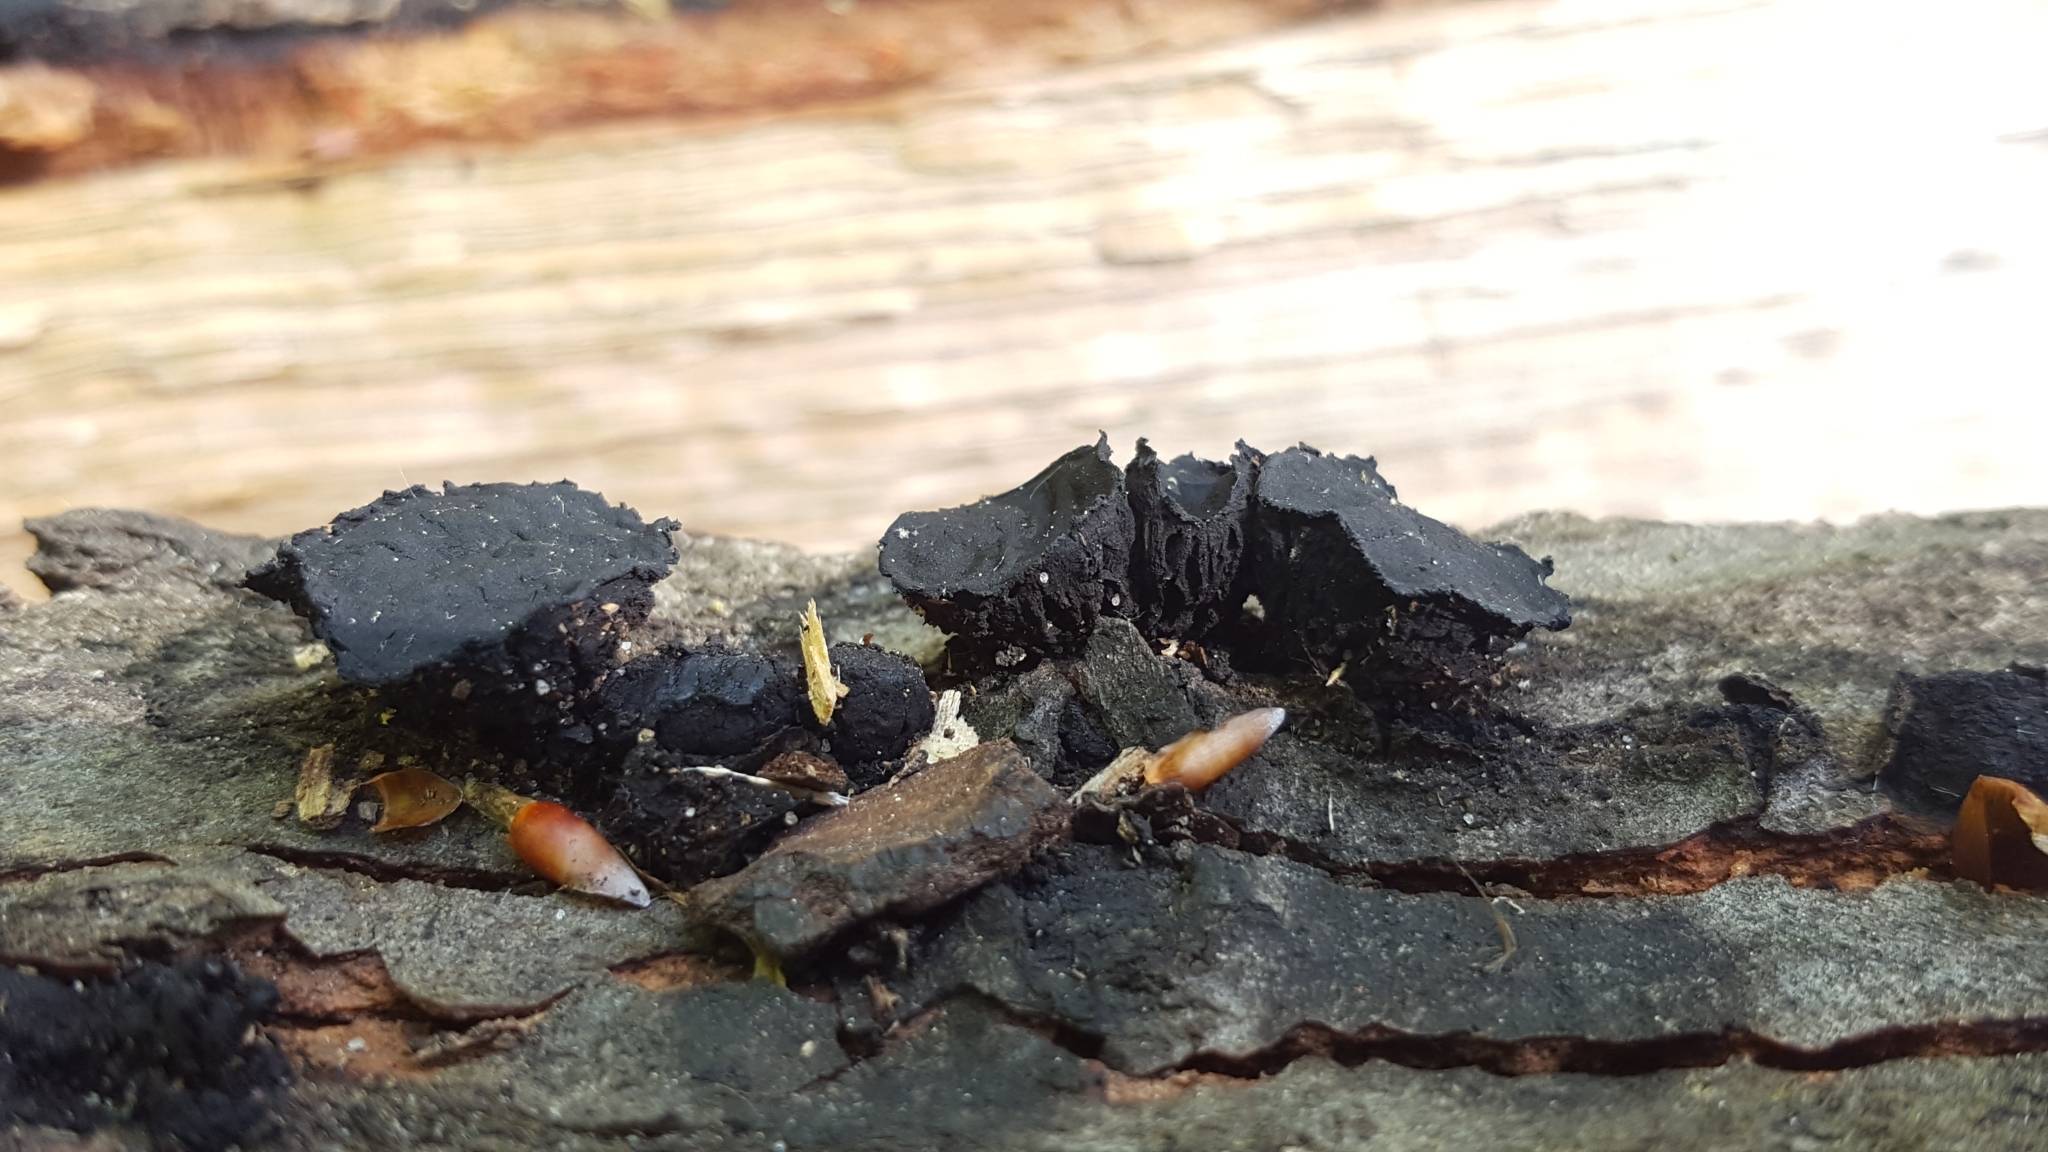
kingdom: Fungi
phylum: Ascomycota
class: Leotiomycetes
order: Phacidiales
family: Phacidiaceae
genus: Bulgaria
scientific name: Bulgaria inquinans
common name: Black bulgar
